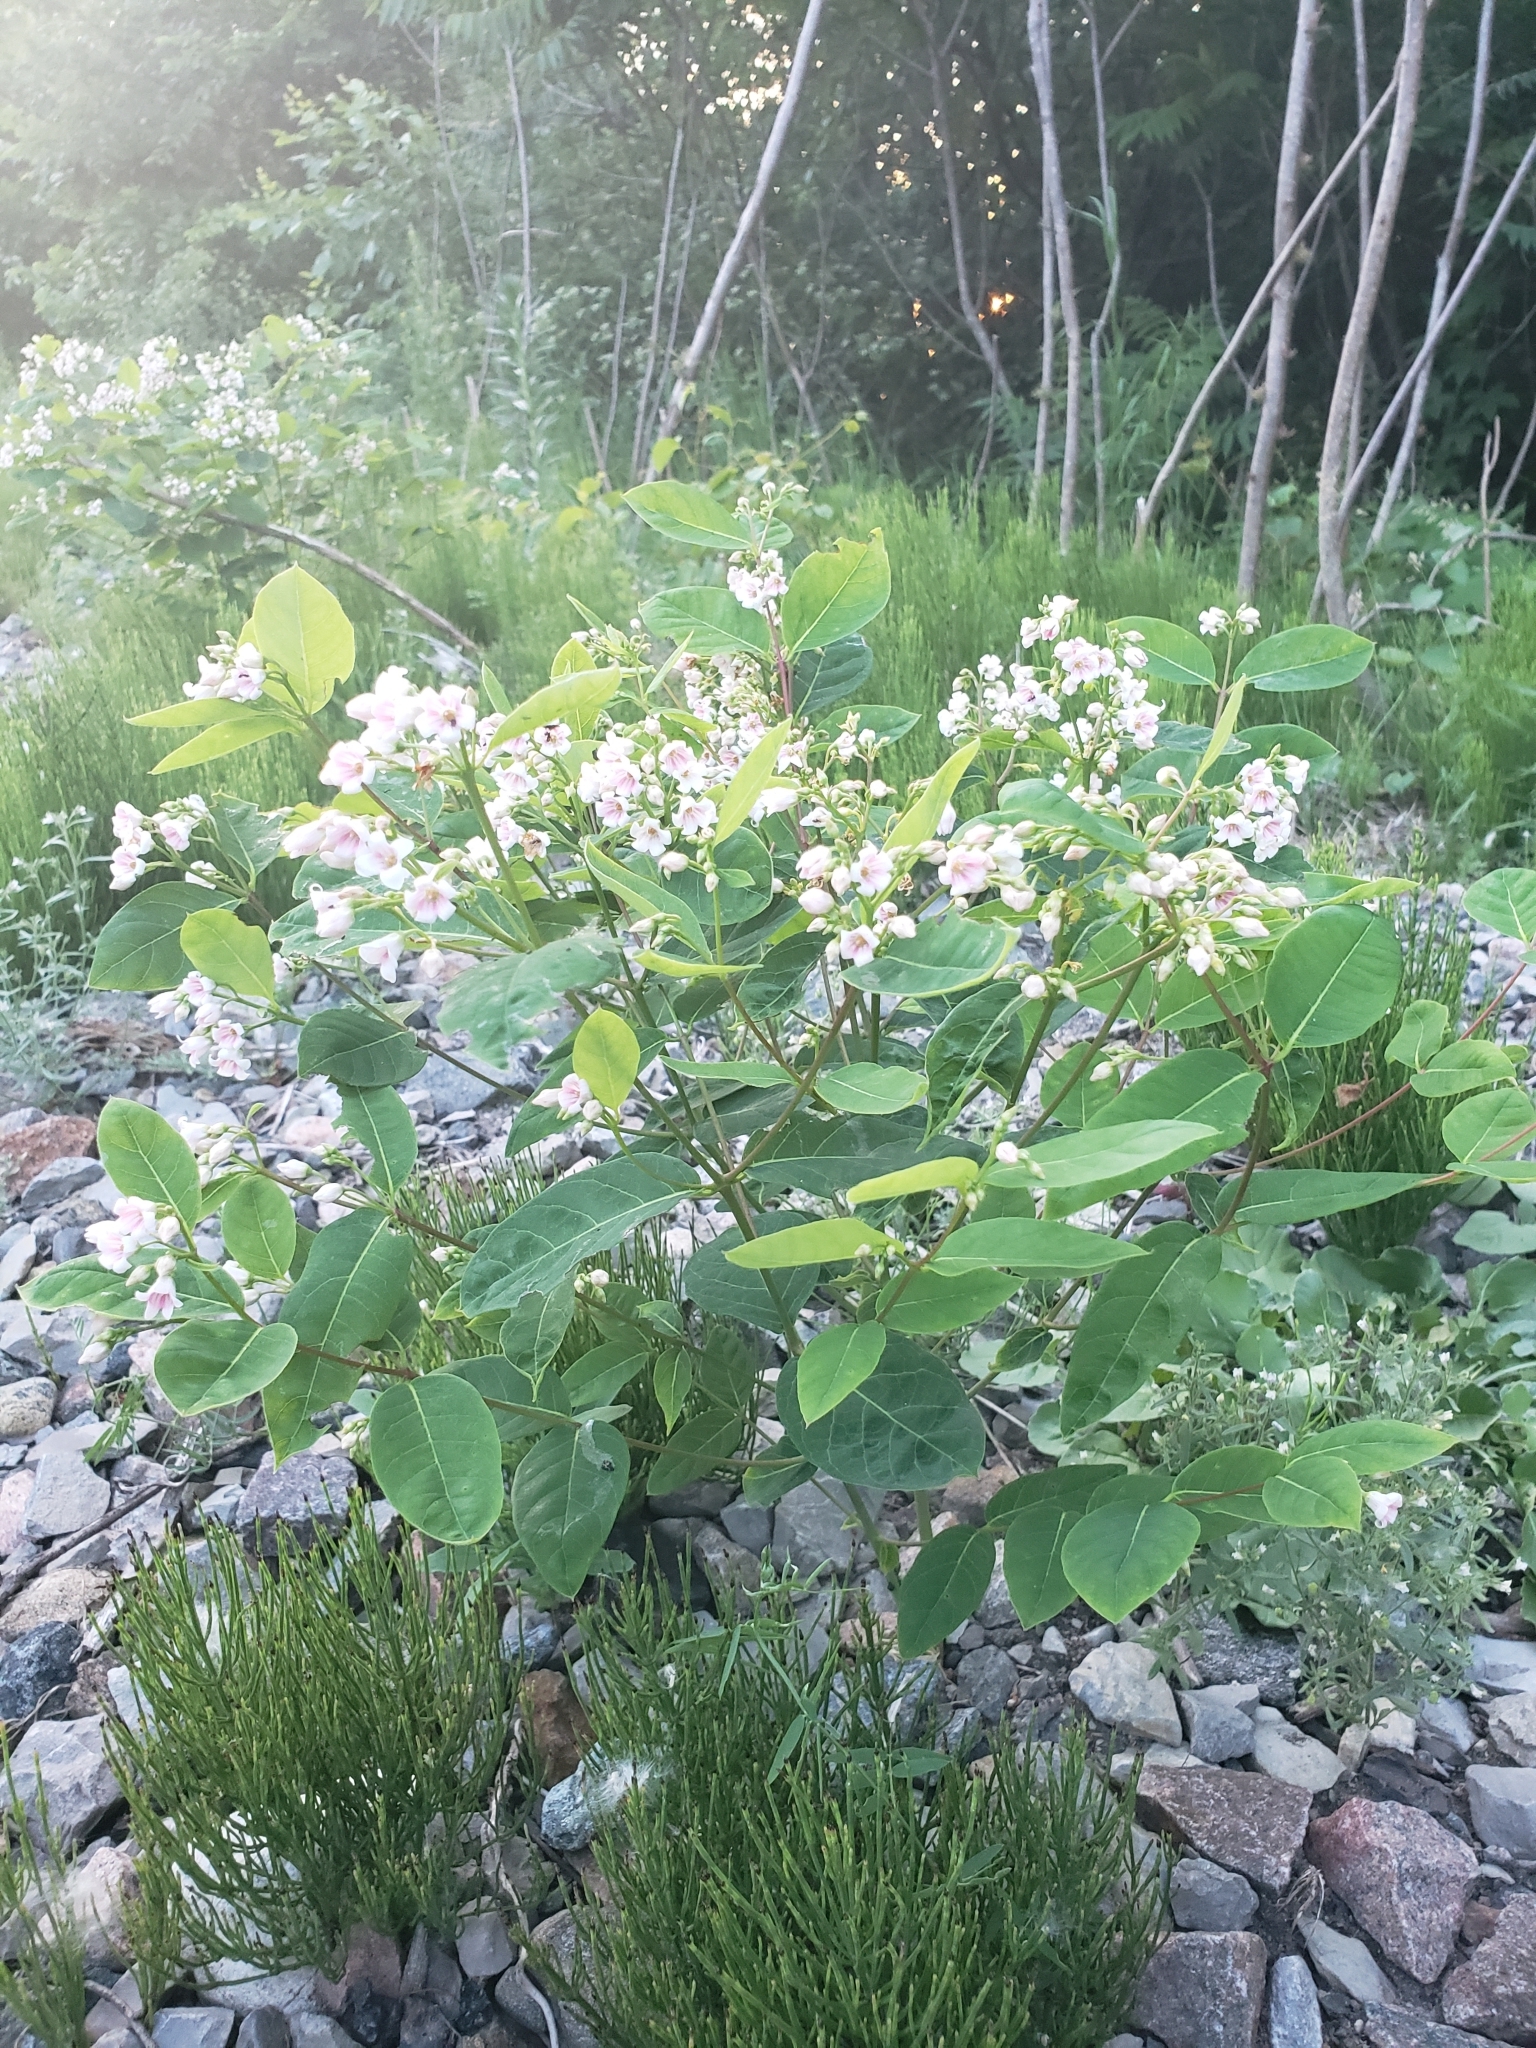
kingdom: Plantae
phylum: Tracheophyta
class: Magnoliopsida
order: Gentianales
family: Apocynaceae
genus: Apocynum
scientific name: Apocynum androsaemifolium
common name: Spreading dogbane
